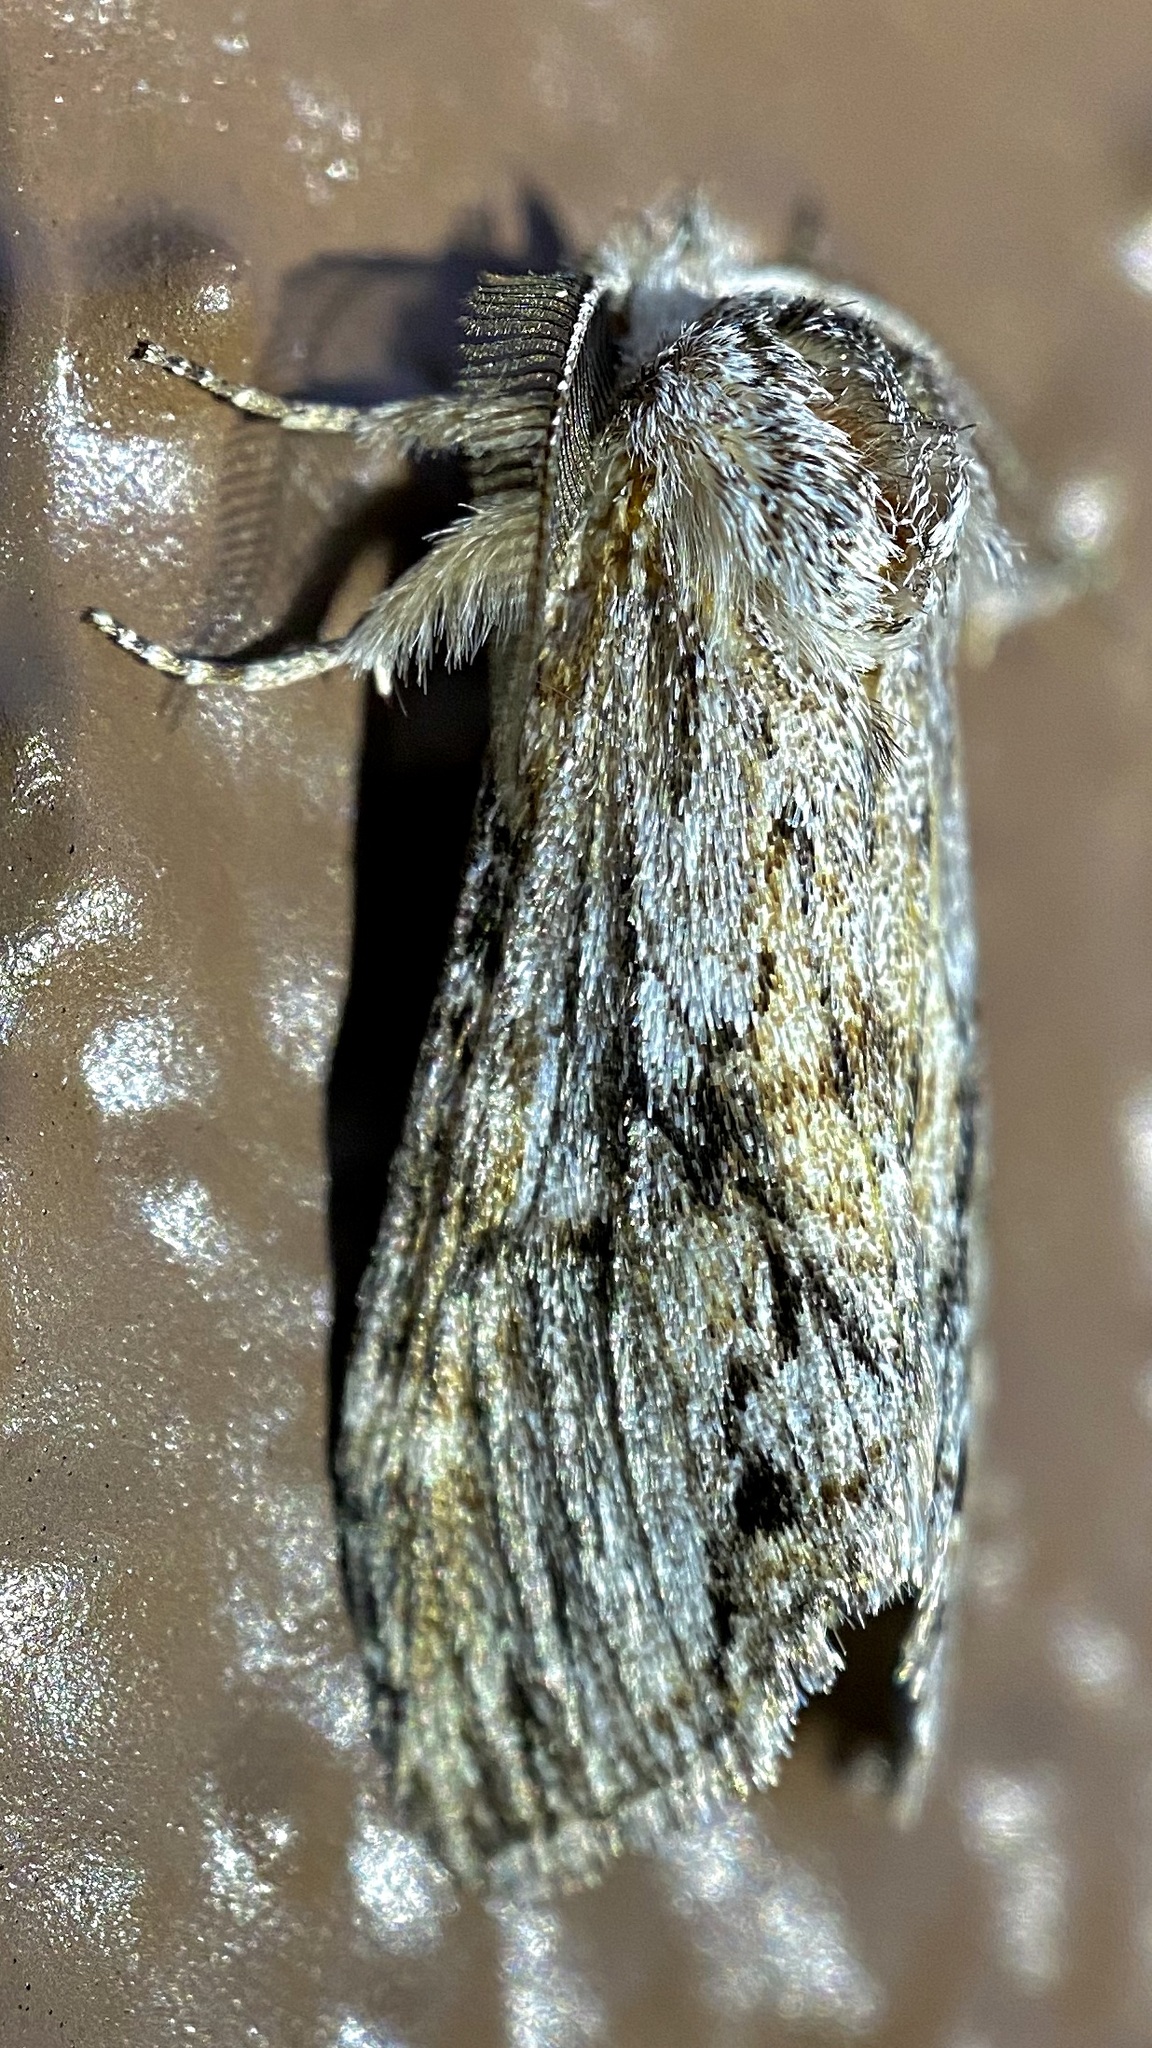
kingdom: Animalia
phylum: Arthropoda
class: Insecta
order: Lepidoptera
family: Notodontidae
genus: Notela
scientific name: Notela jaliscana
